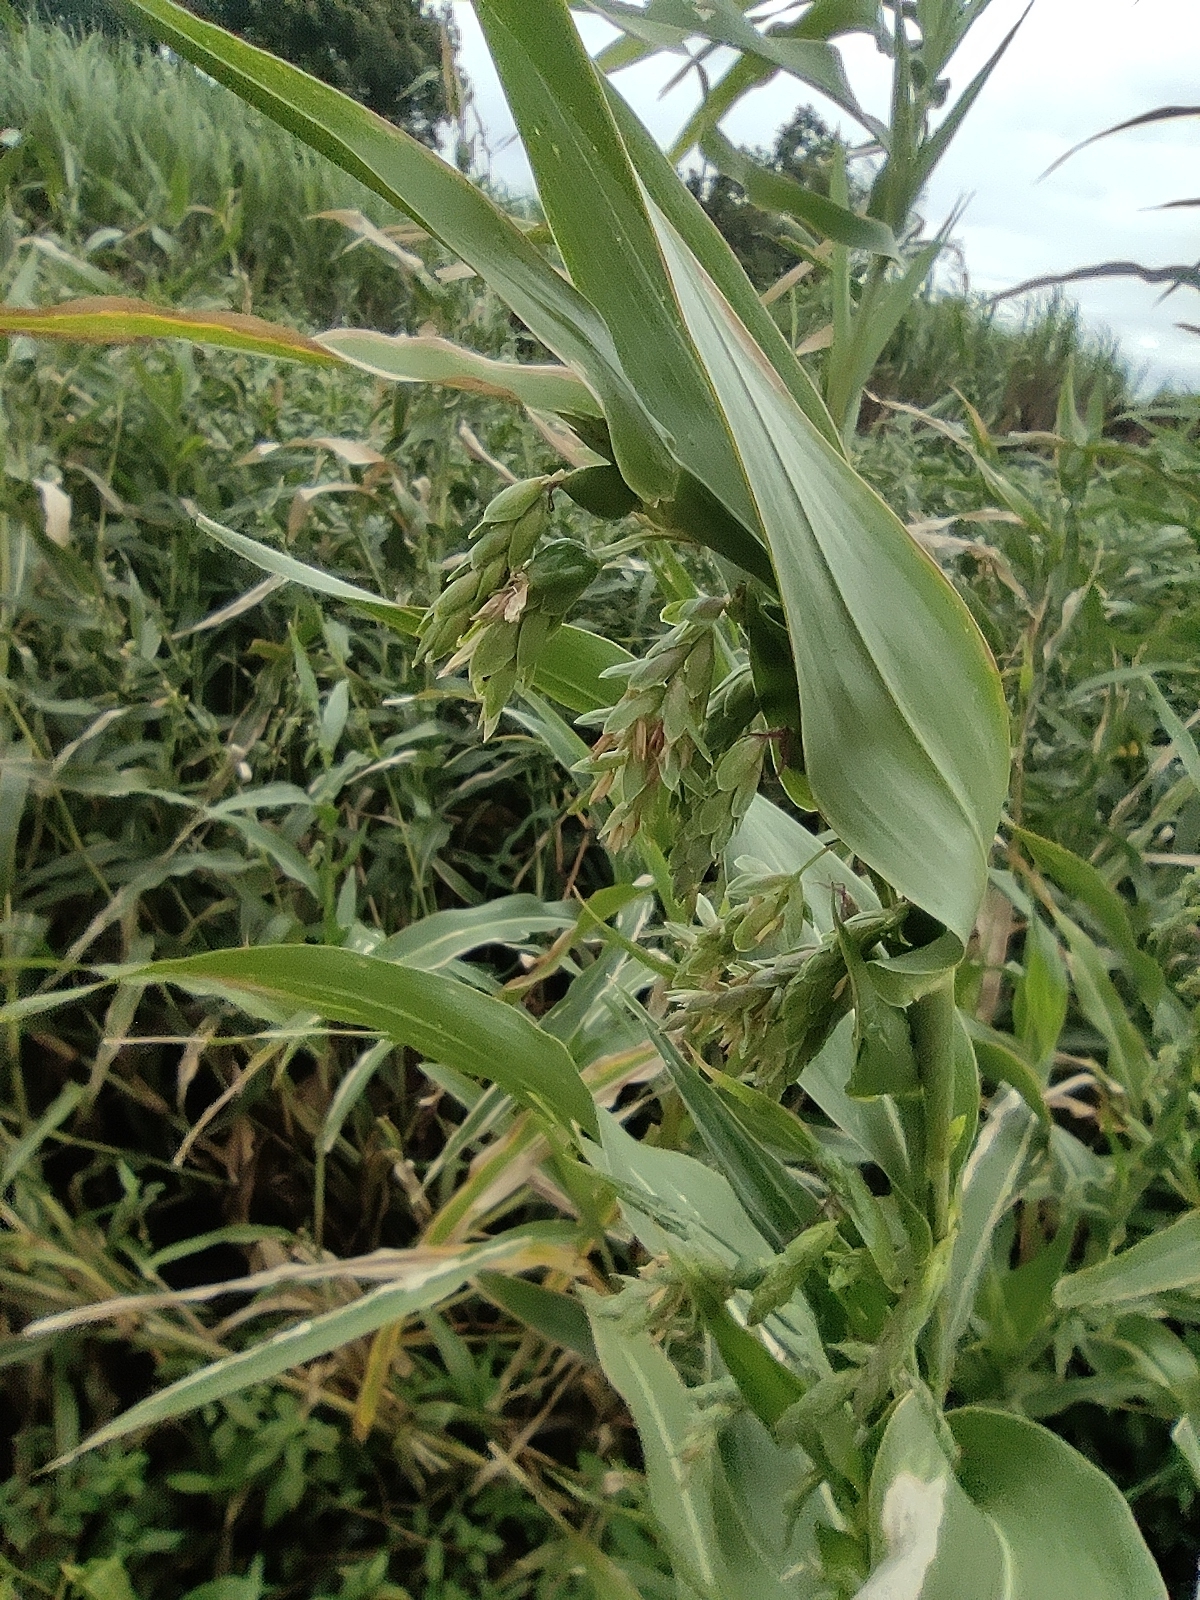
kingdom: Plantae
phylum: Tracheophyta
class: Liliopsida
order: Poales
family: Poaceae
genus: Coix
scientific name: Coix lacryma-jobi
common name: Job's tears
